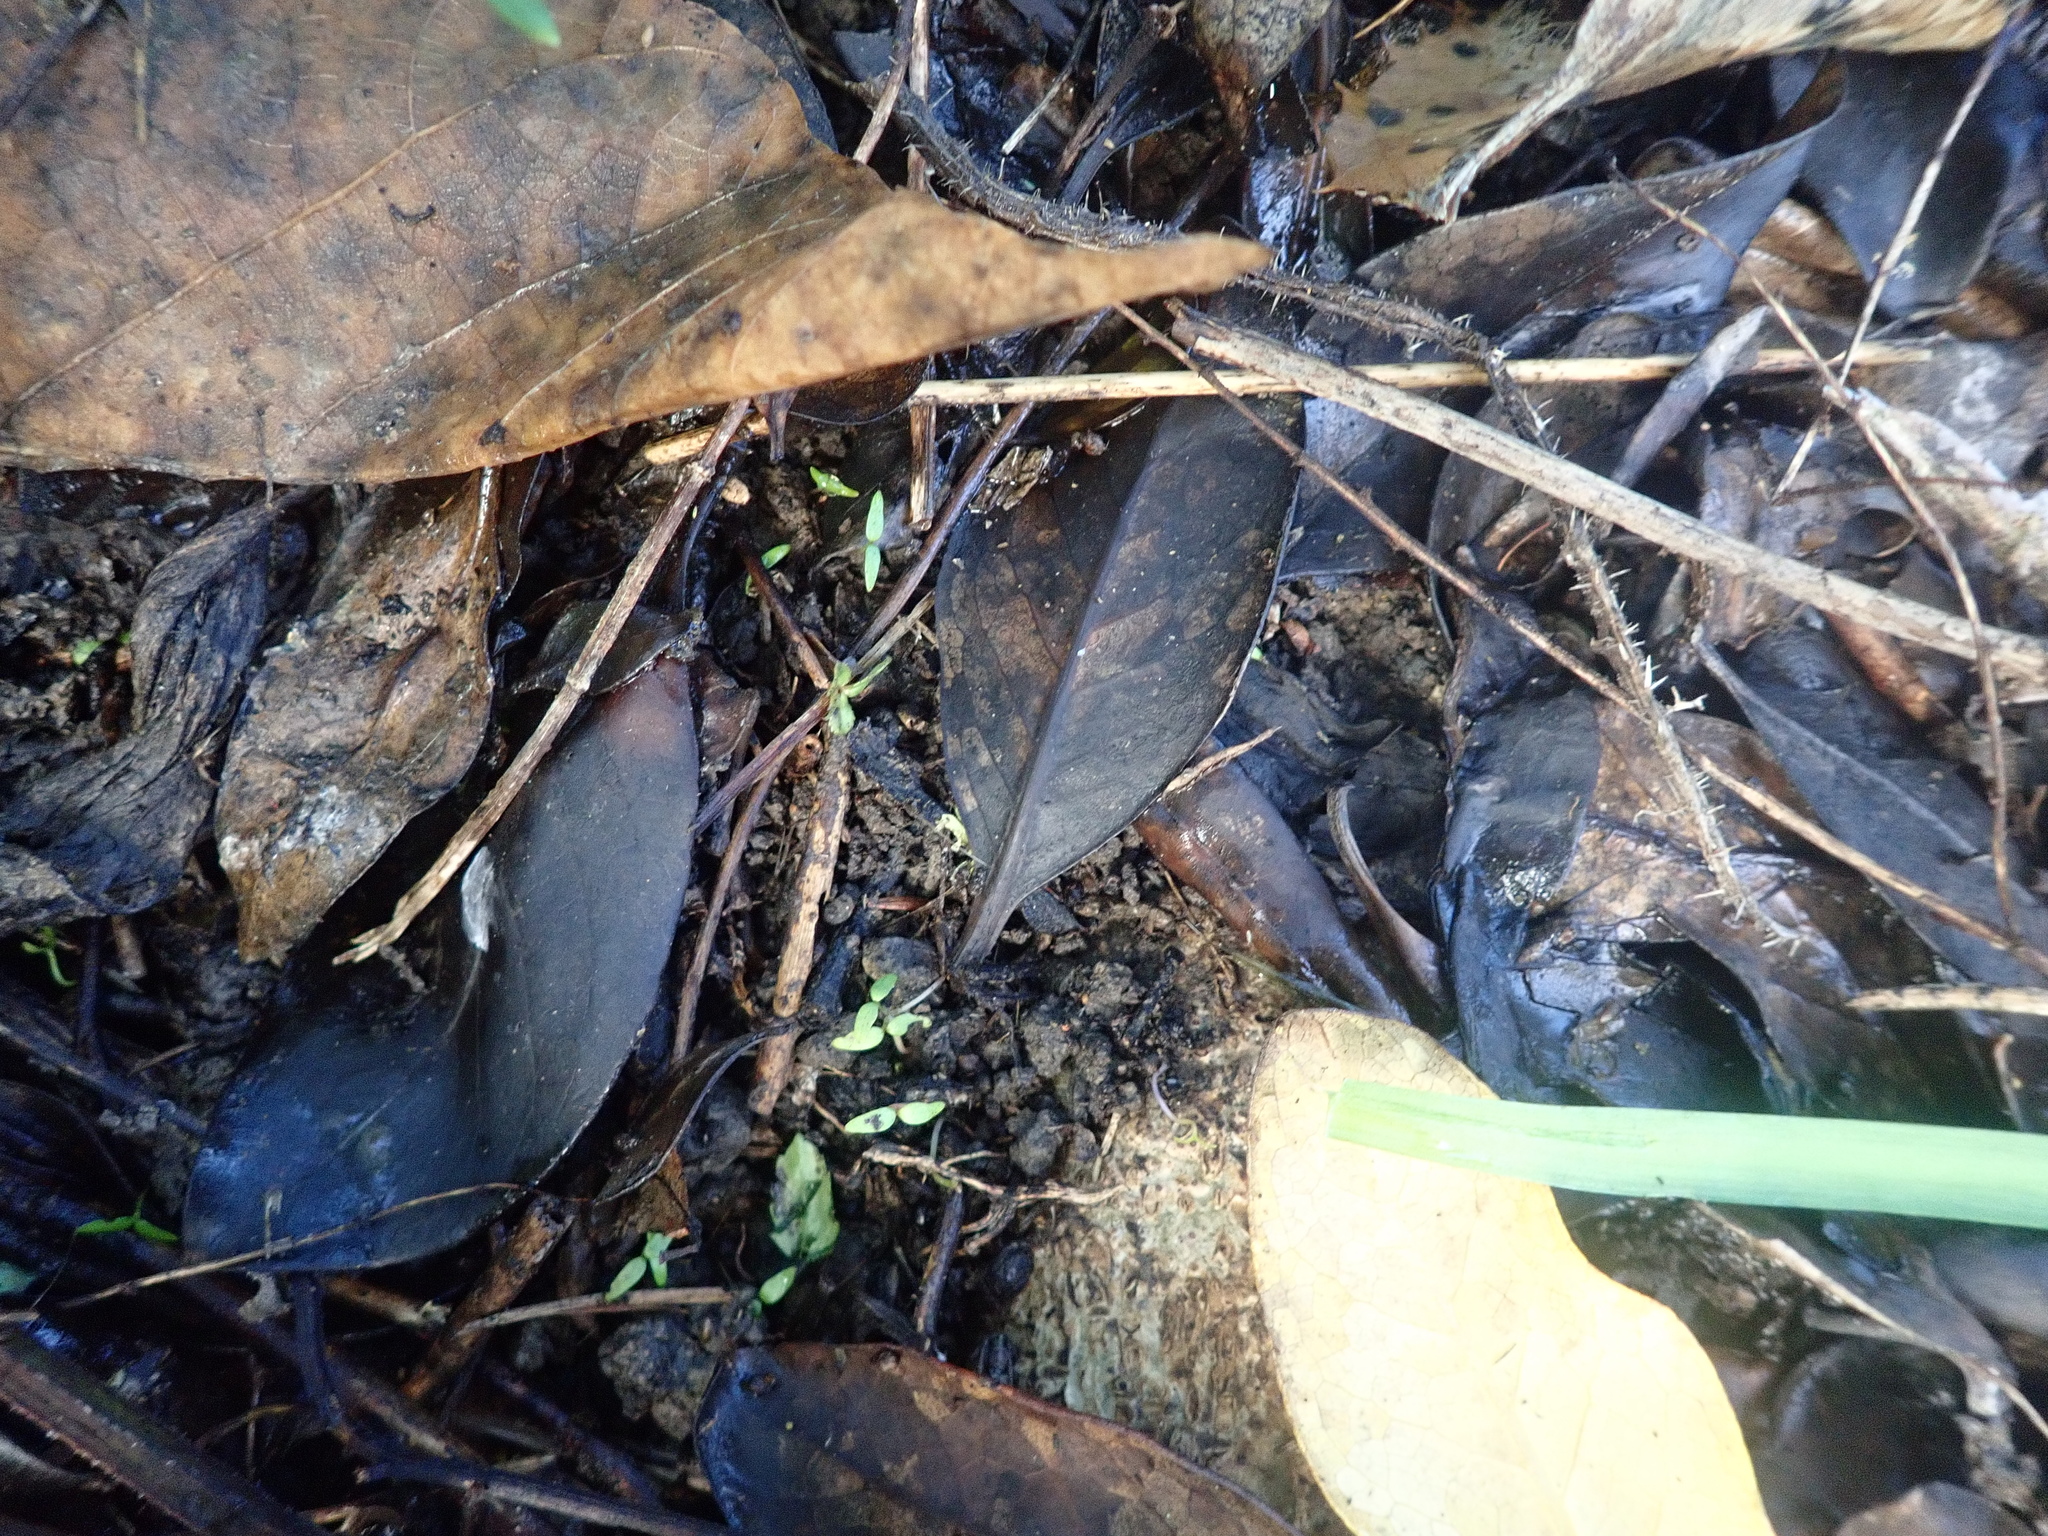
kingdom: Plantae
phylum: Tracheophyta
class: Magnoliopsida
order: Saxifragales
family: Haloragaceae
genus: Haloragis
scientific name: Haloragis erecta
